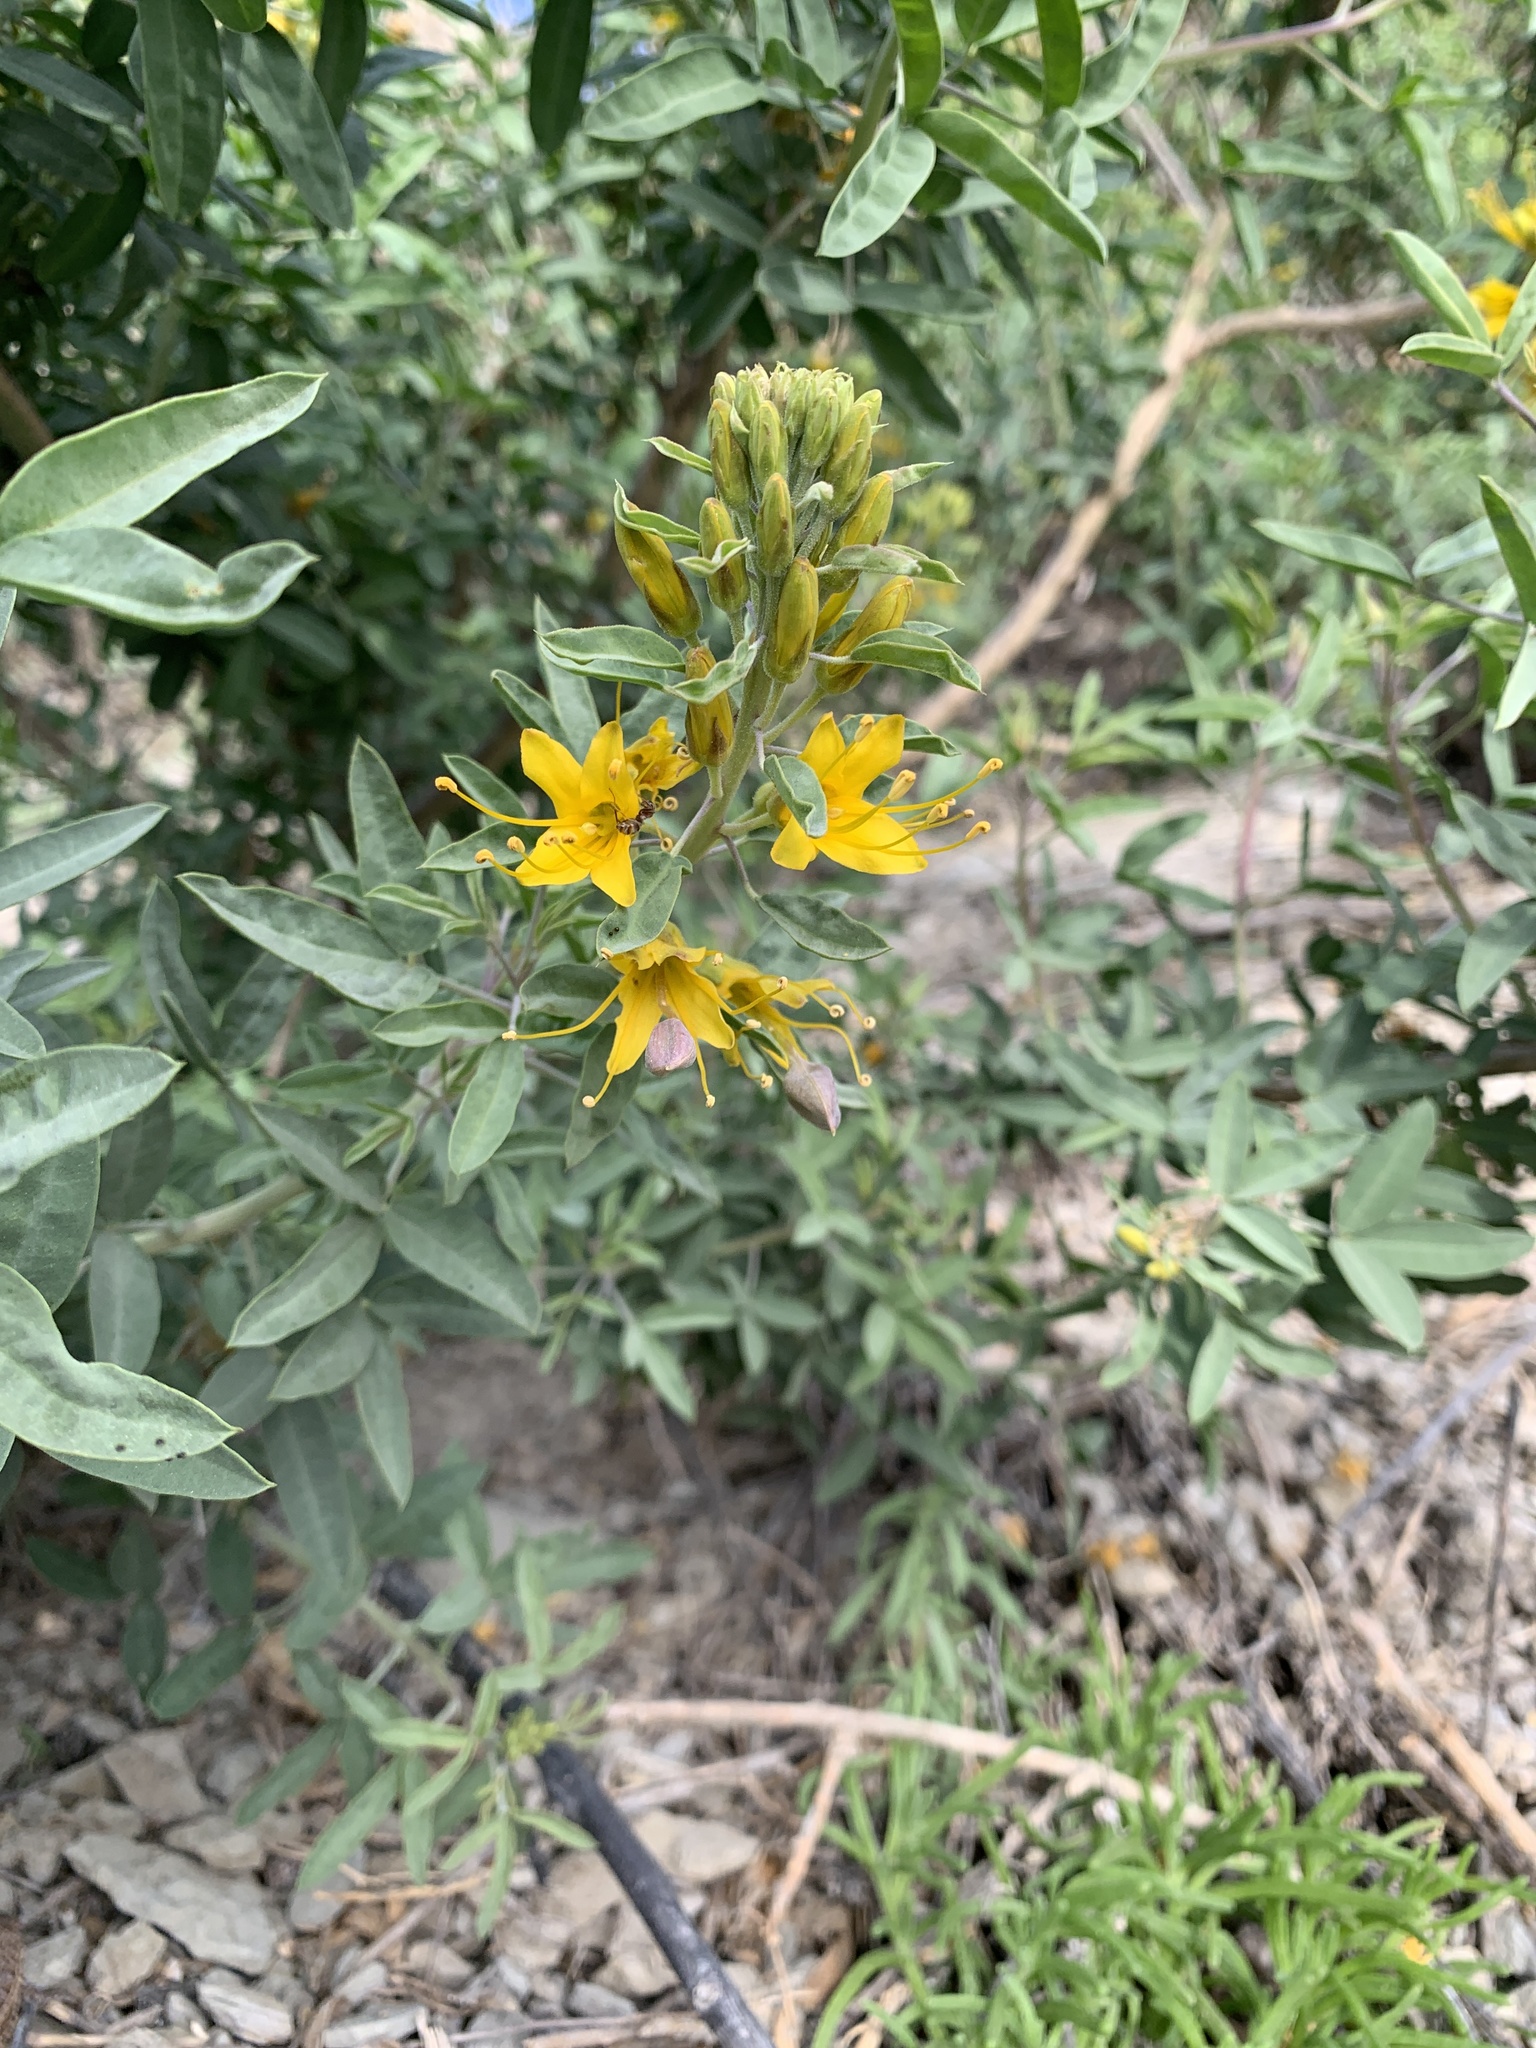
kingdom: Plantae
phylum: Tracheophyta
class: Magnoliopsida
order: Brassicales
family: Cleomaceae
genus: Cleomella
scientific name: Cleomella arborea
